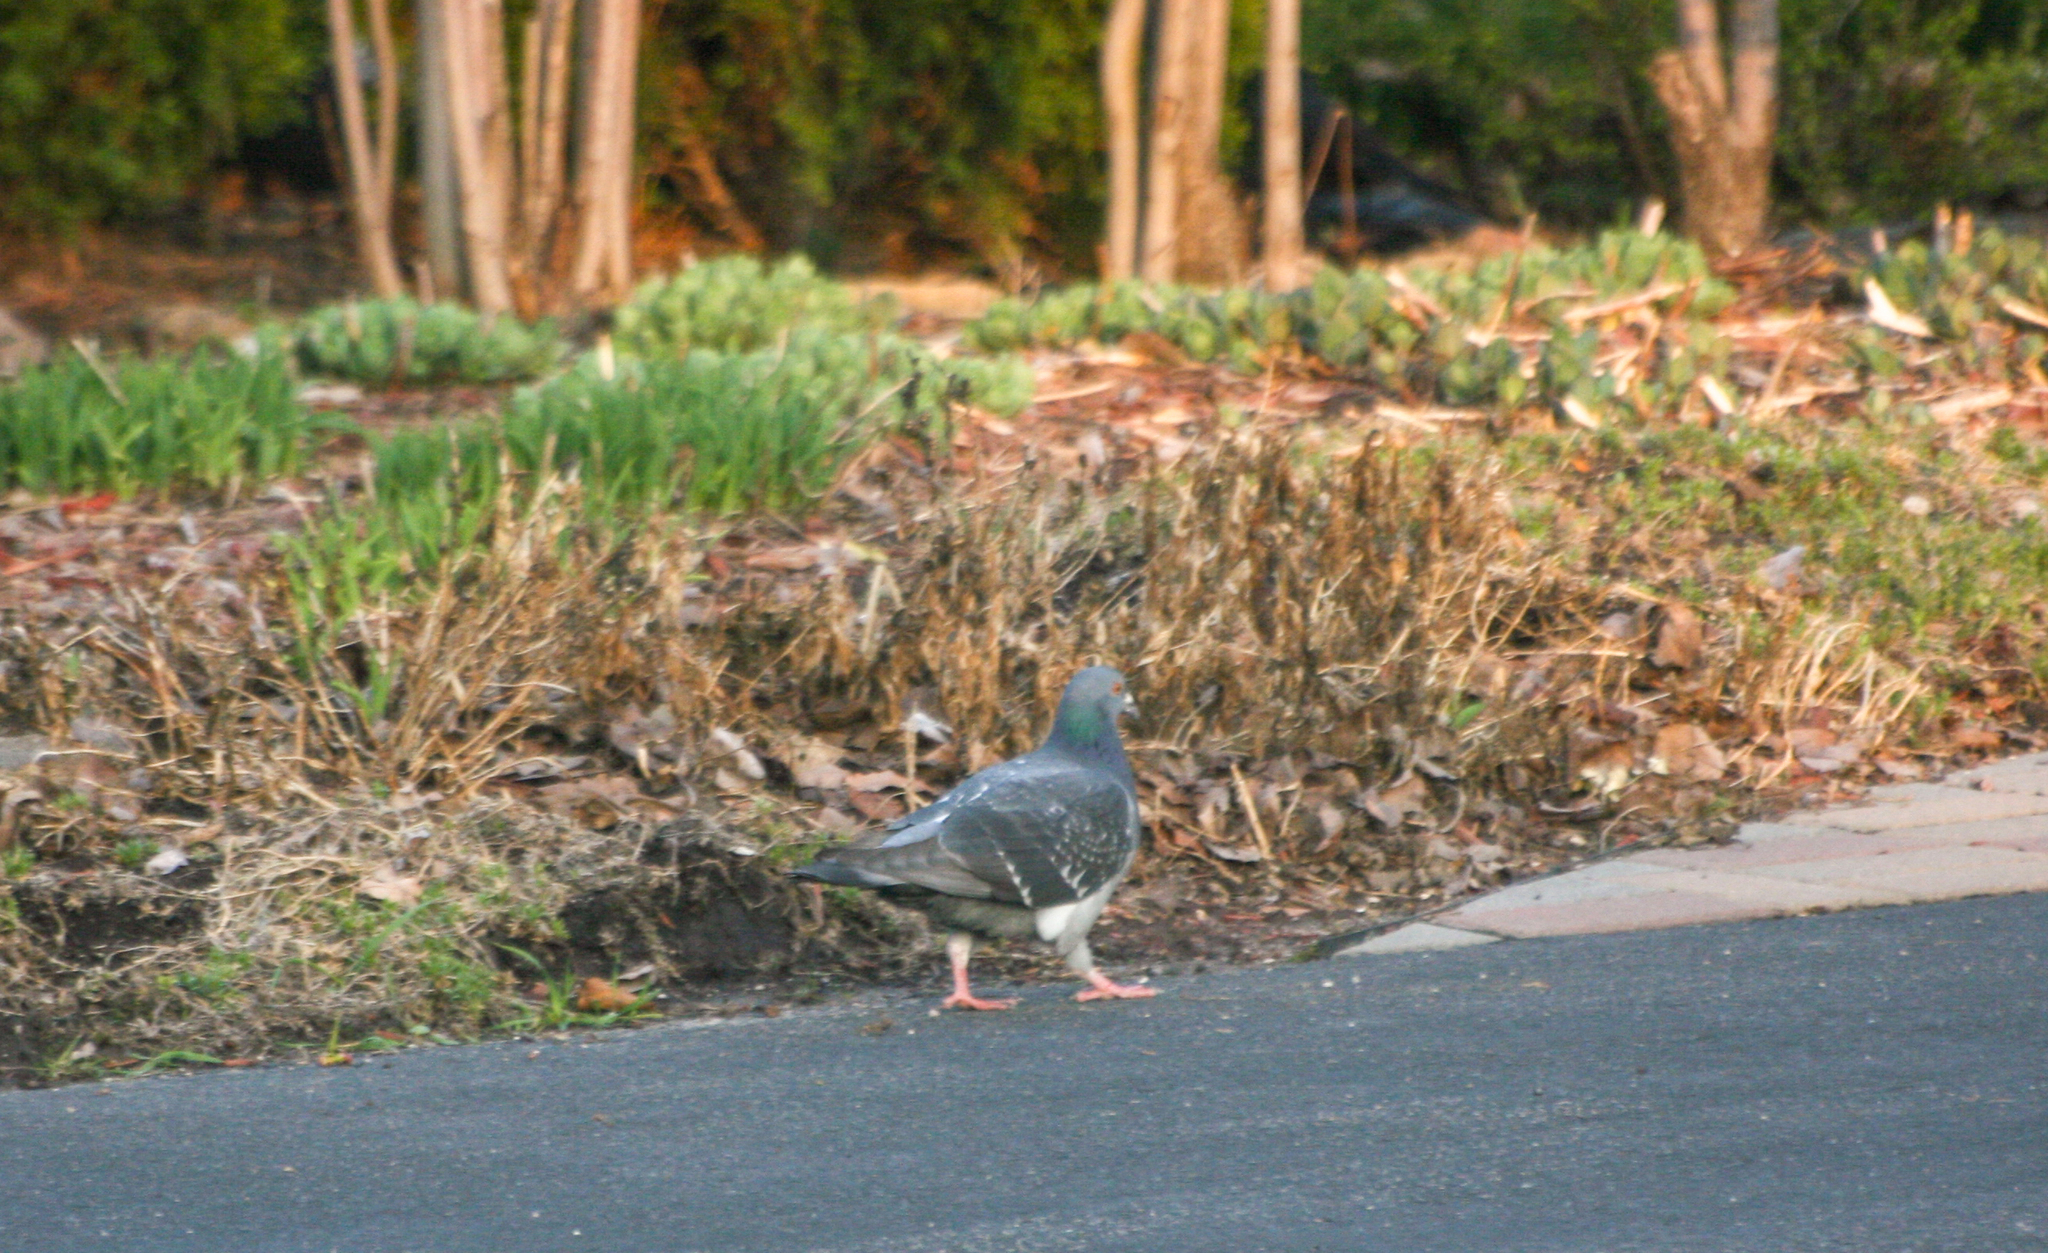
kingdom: Animalia
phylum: Chordata
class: Aves
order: Columbiformes
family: Columbidae
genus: Columba
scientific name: Columba livia
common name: Rock pigeon
